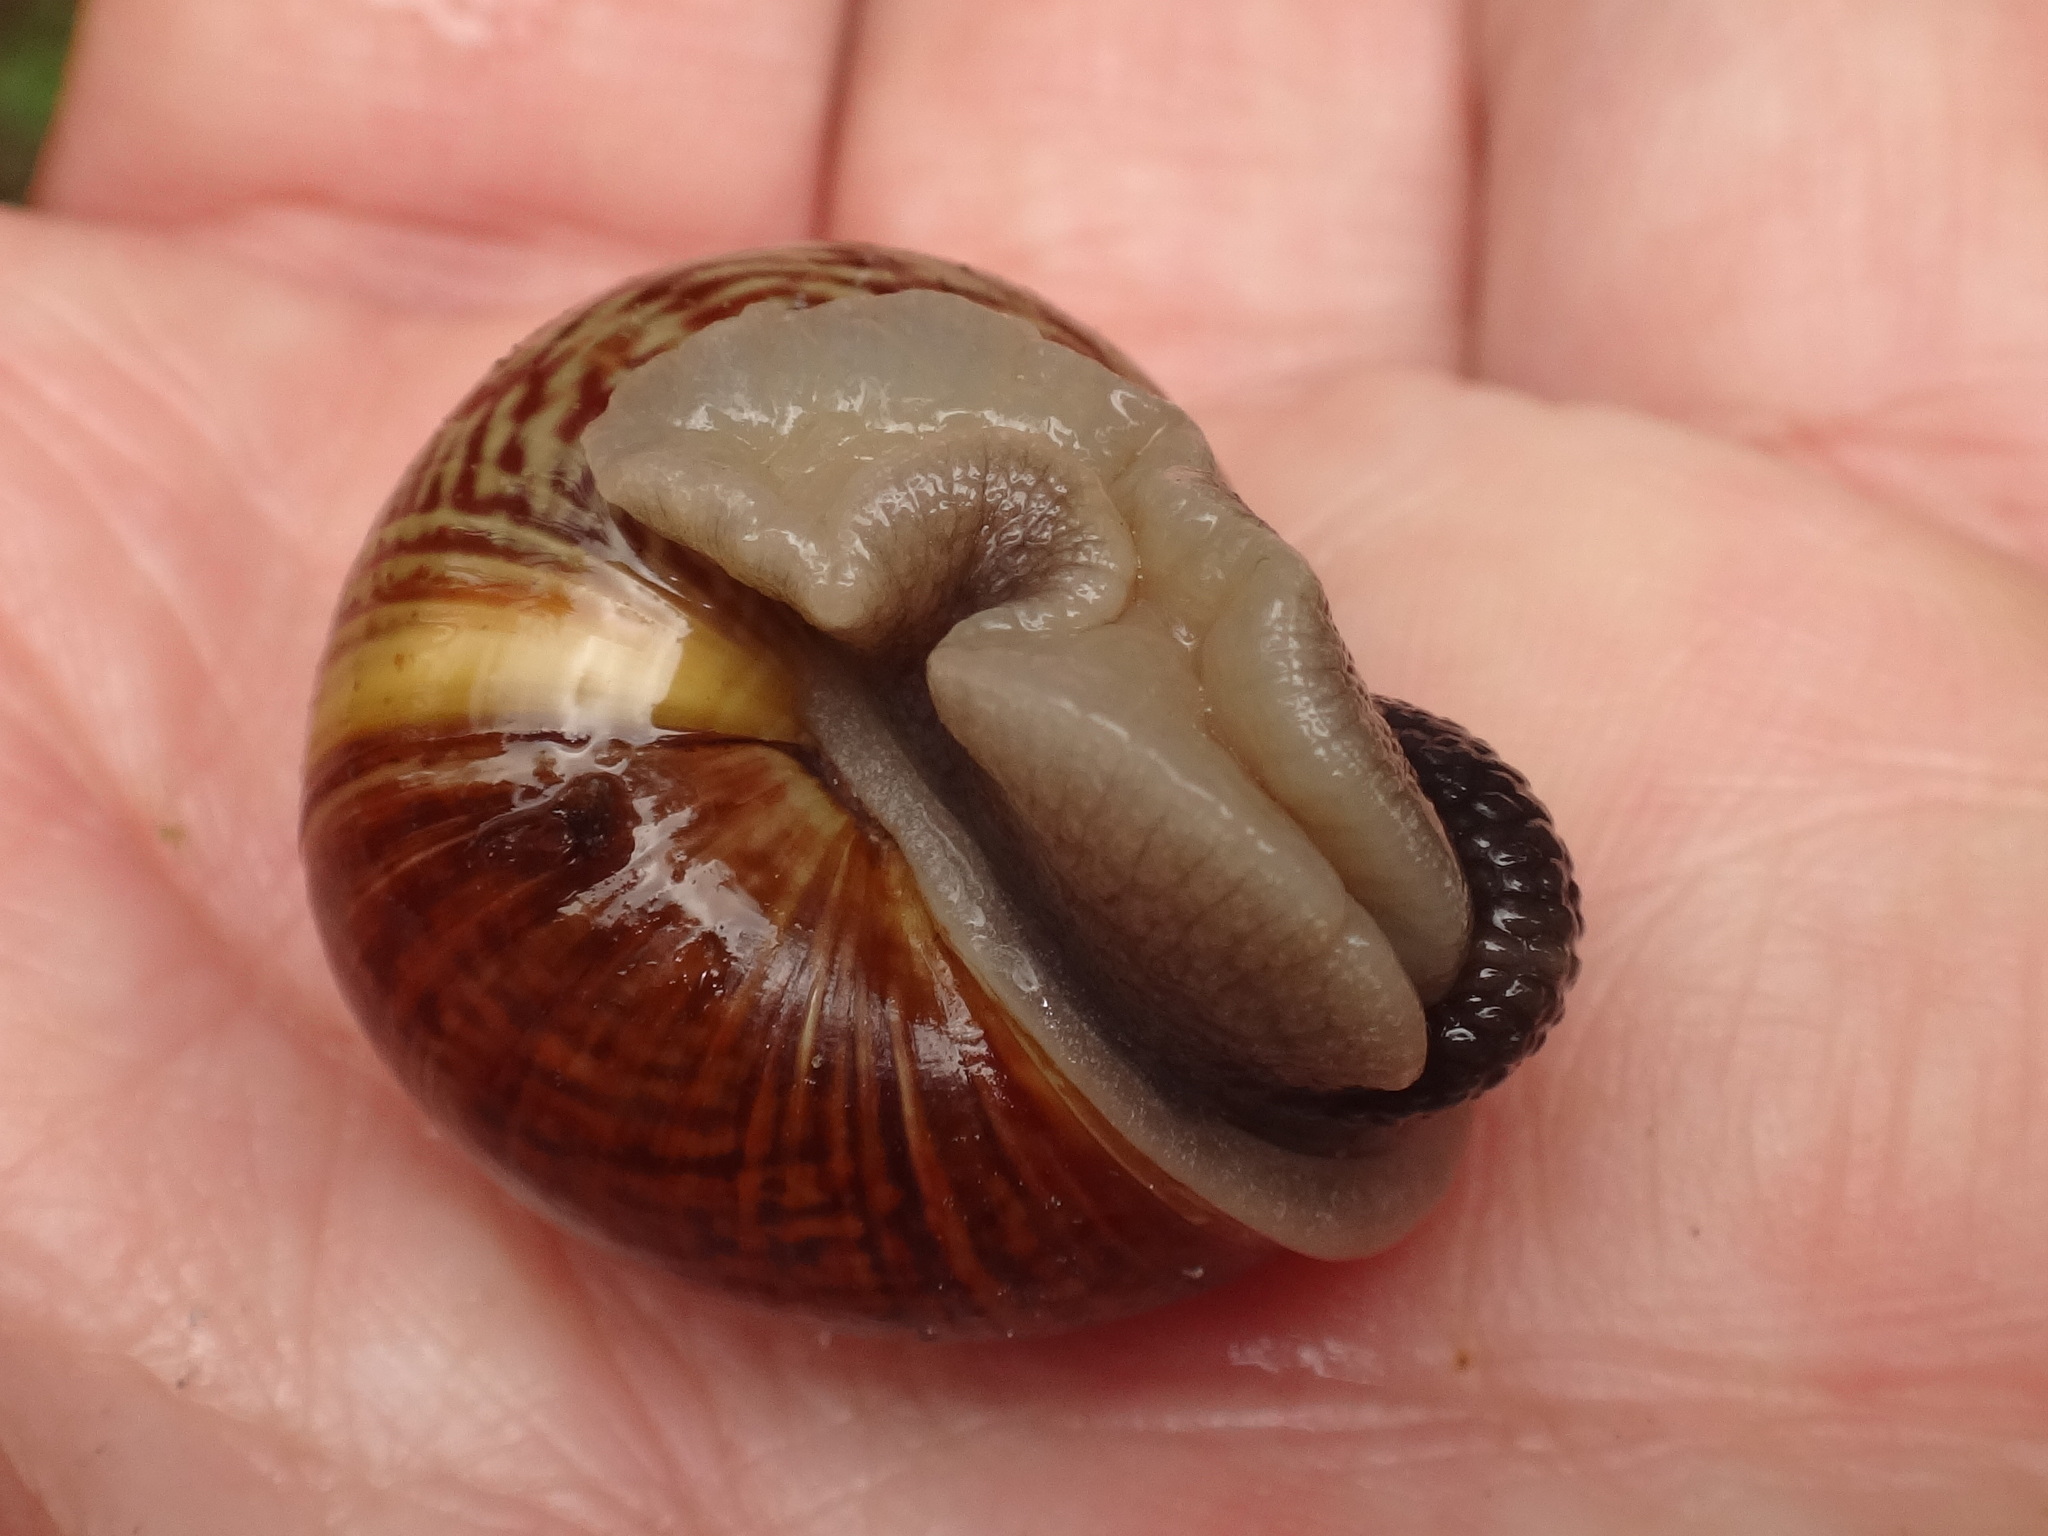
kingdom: Animalia
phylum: Mollusca
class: Gastropoda
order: Stylommatophora
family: Helicidae
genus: Arianta
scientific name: Arianta arbustorum
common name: Copse snail
